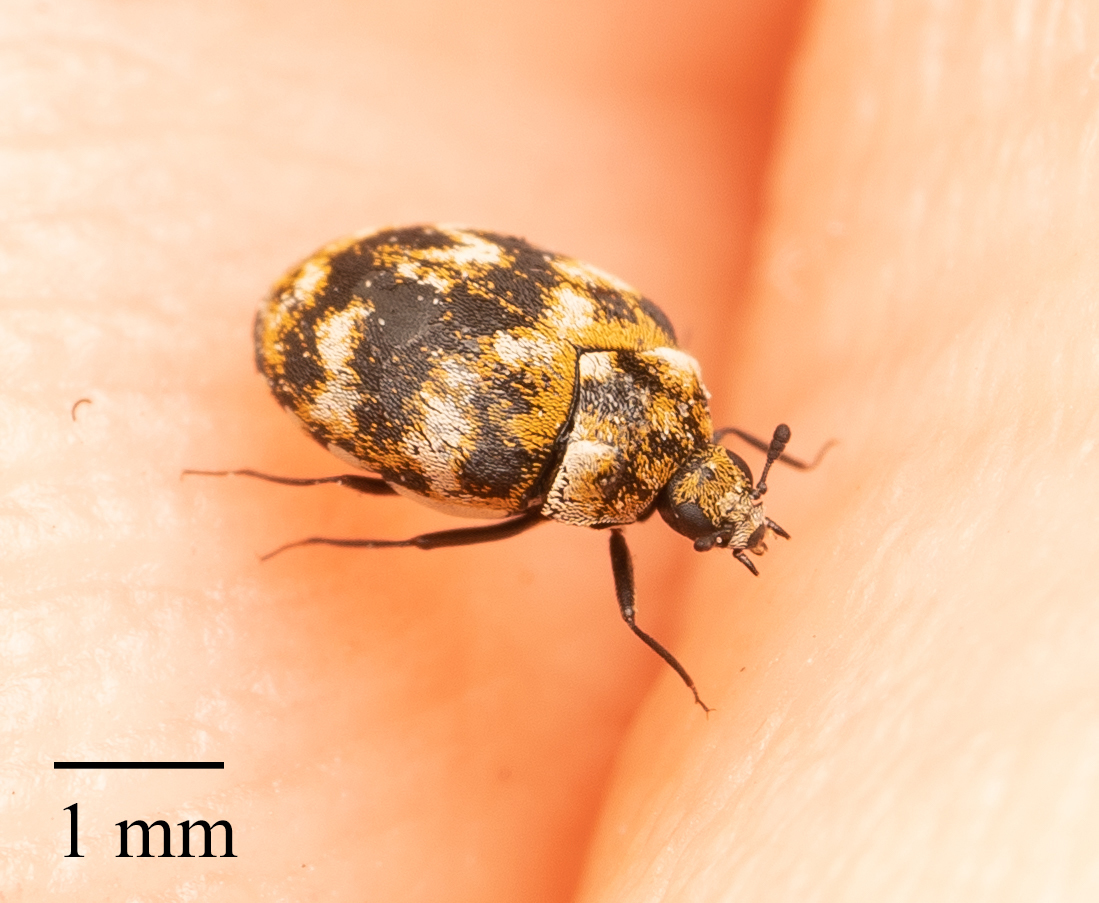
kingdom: Animalia
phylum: Arthropoda
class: Insecta
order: Coleoptera
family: Dermestidae
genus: Anthrenus
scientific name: Anthrenus verbasci
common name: Varied carpet beetle
